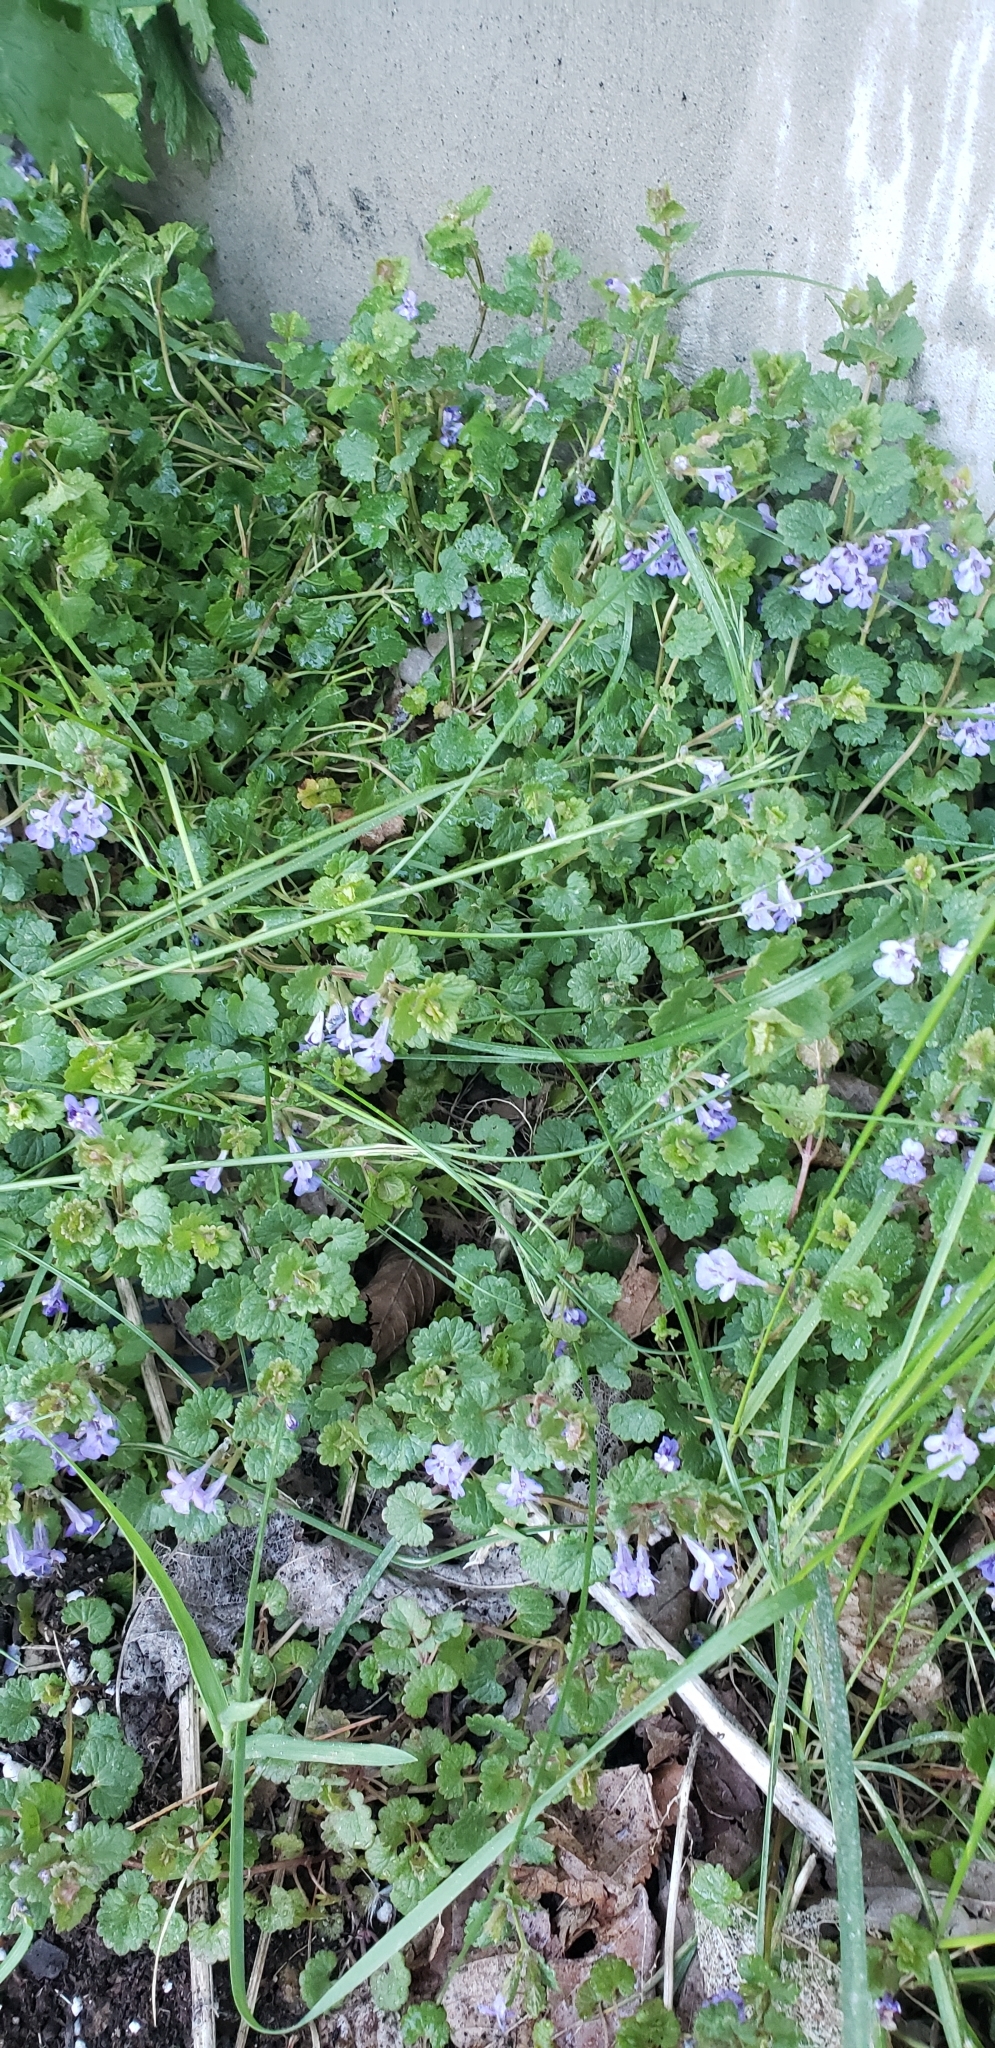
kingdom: Plantae
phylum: Tracheophyta
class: Magnoliopsida
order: Lamiales
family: Lamiaceae
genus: Glechoma
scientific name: Glechoma hederacea
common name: Ground ivy
